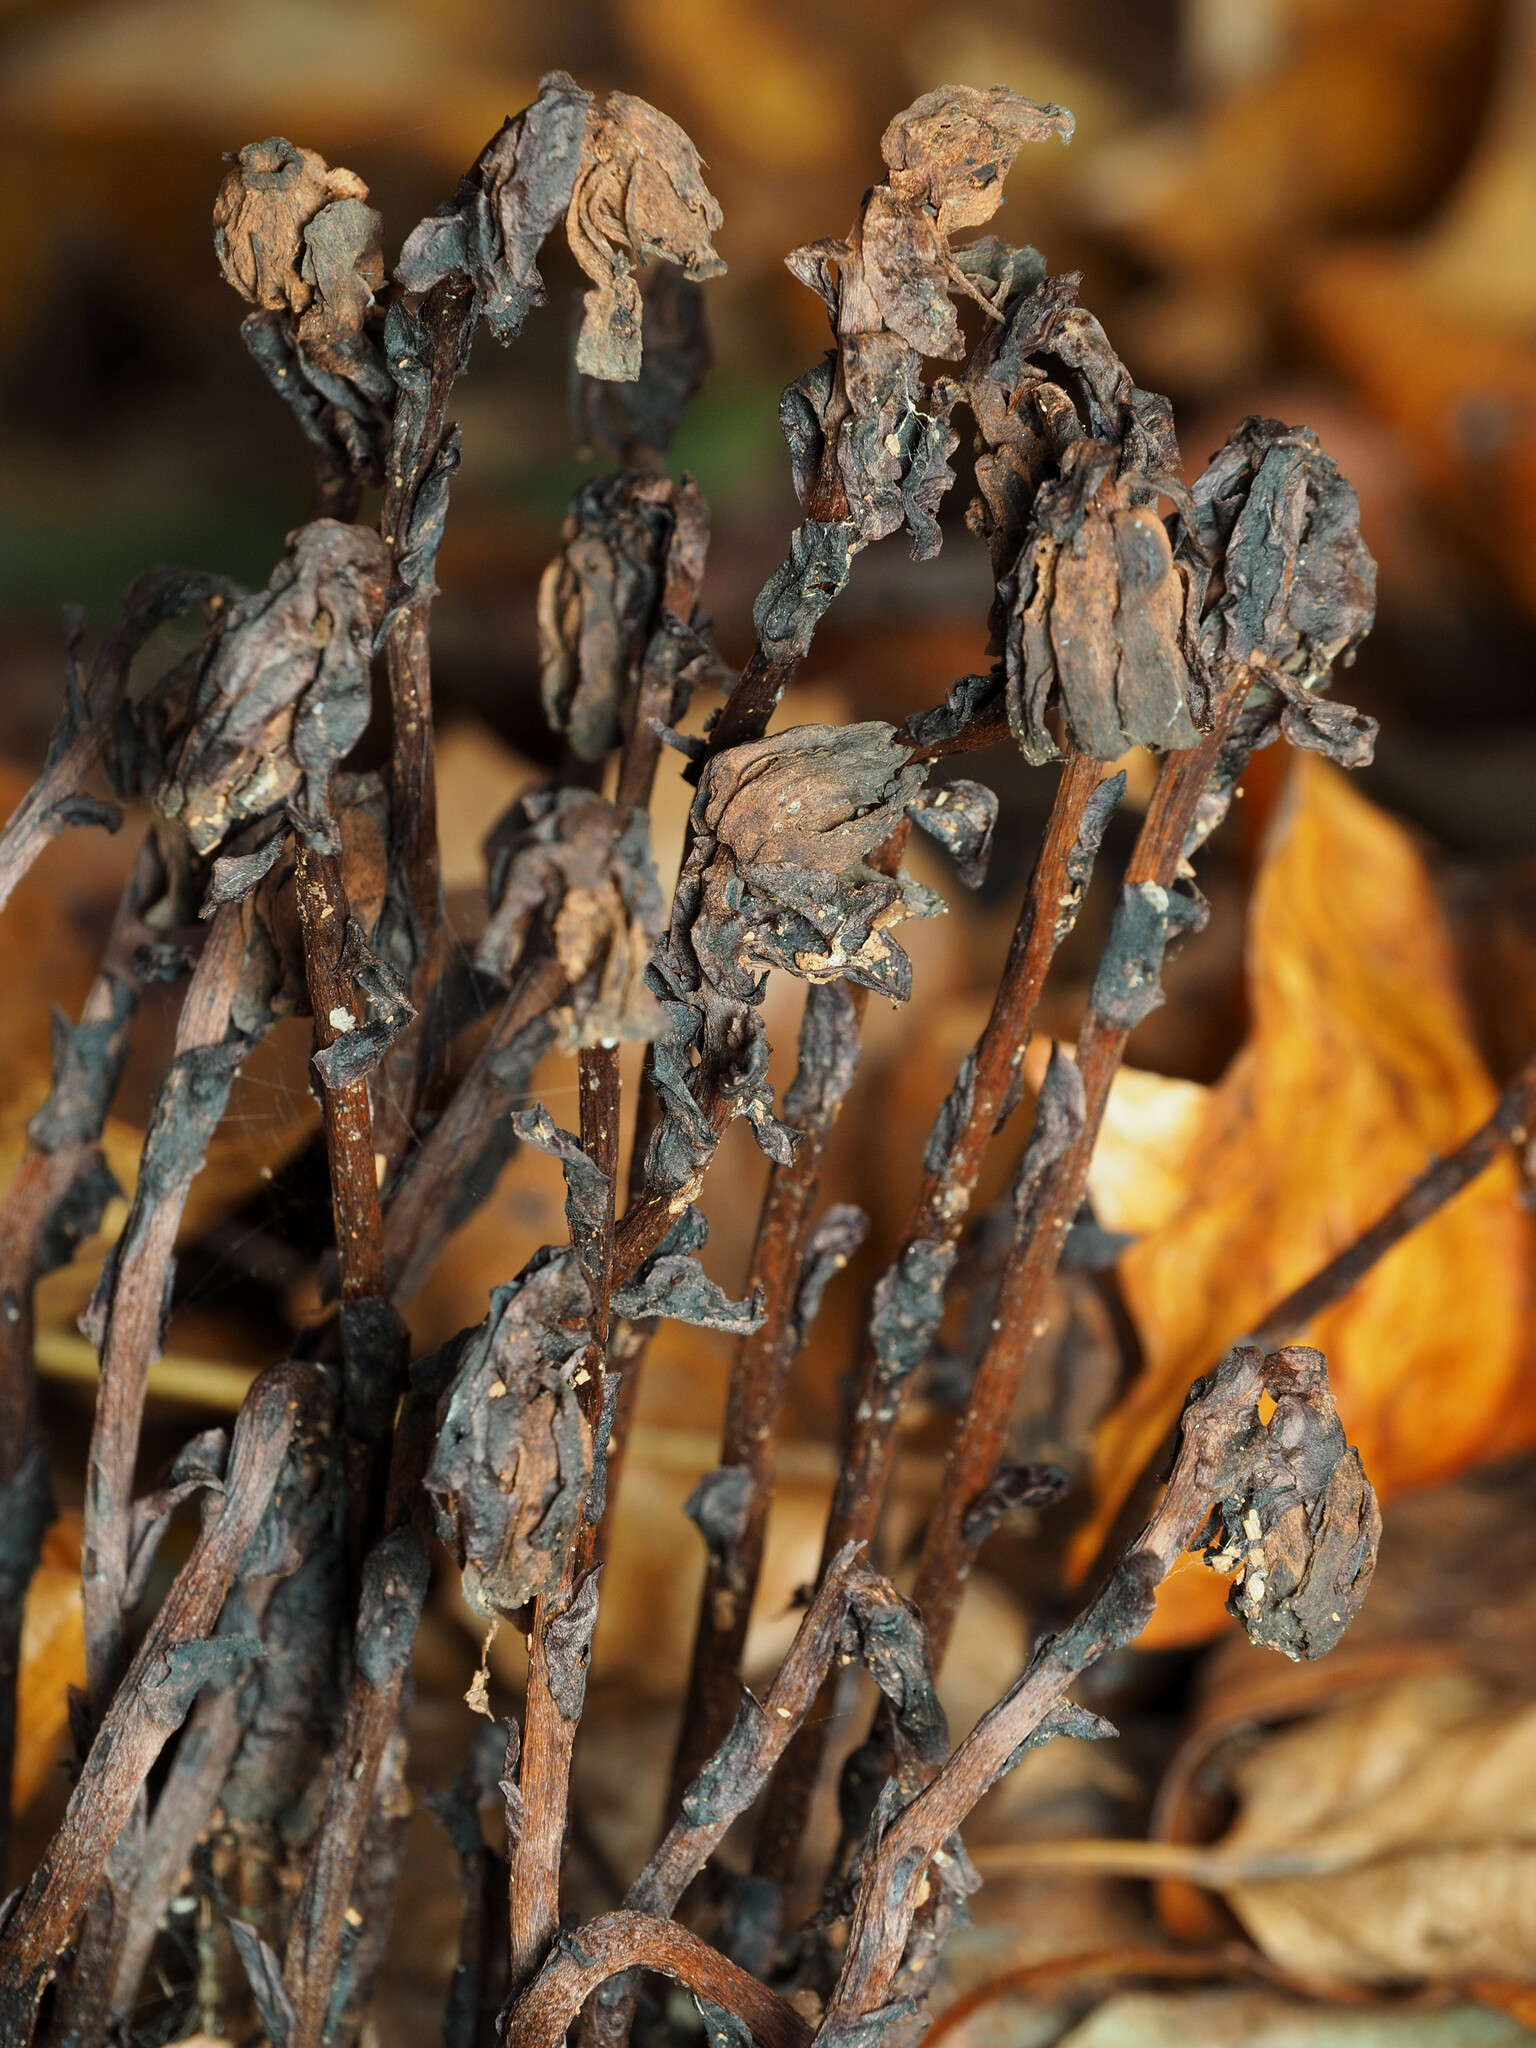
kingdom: Plantae
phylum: Tracheophyta
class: Magnoliopsida
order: Ericales
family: Ericaceae
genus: Monotropa
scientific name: Monotropa uniflora
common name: Convulsion root
